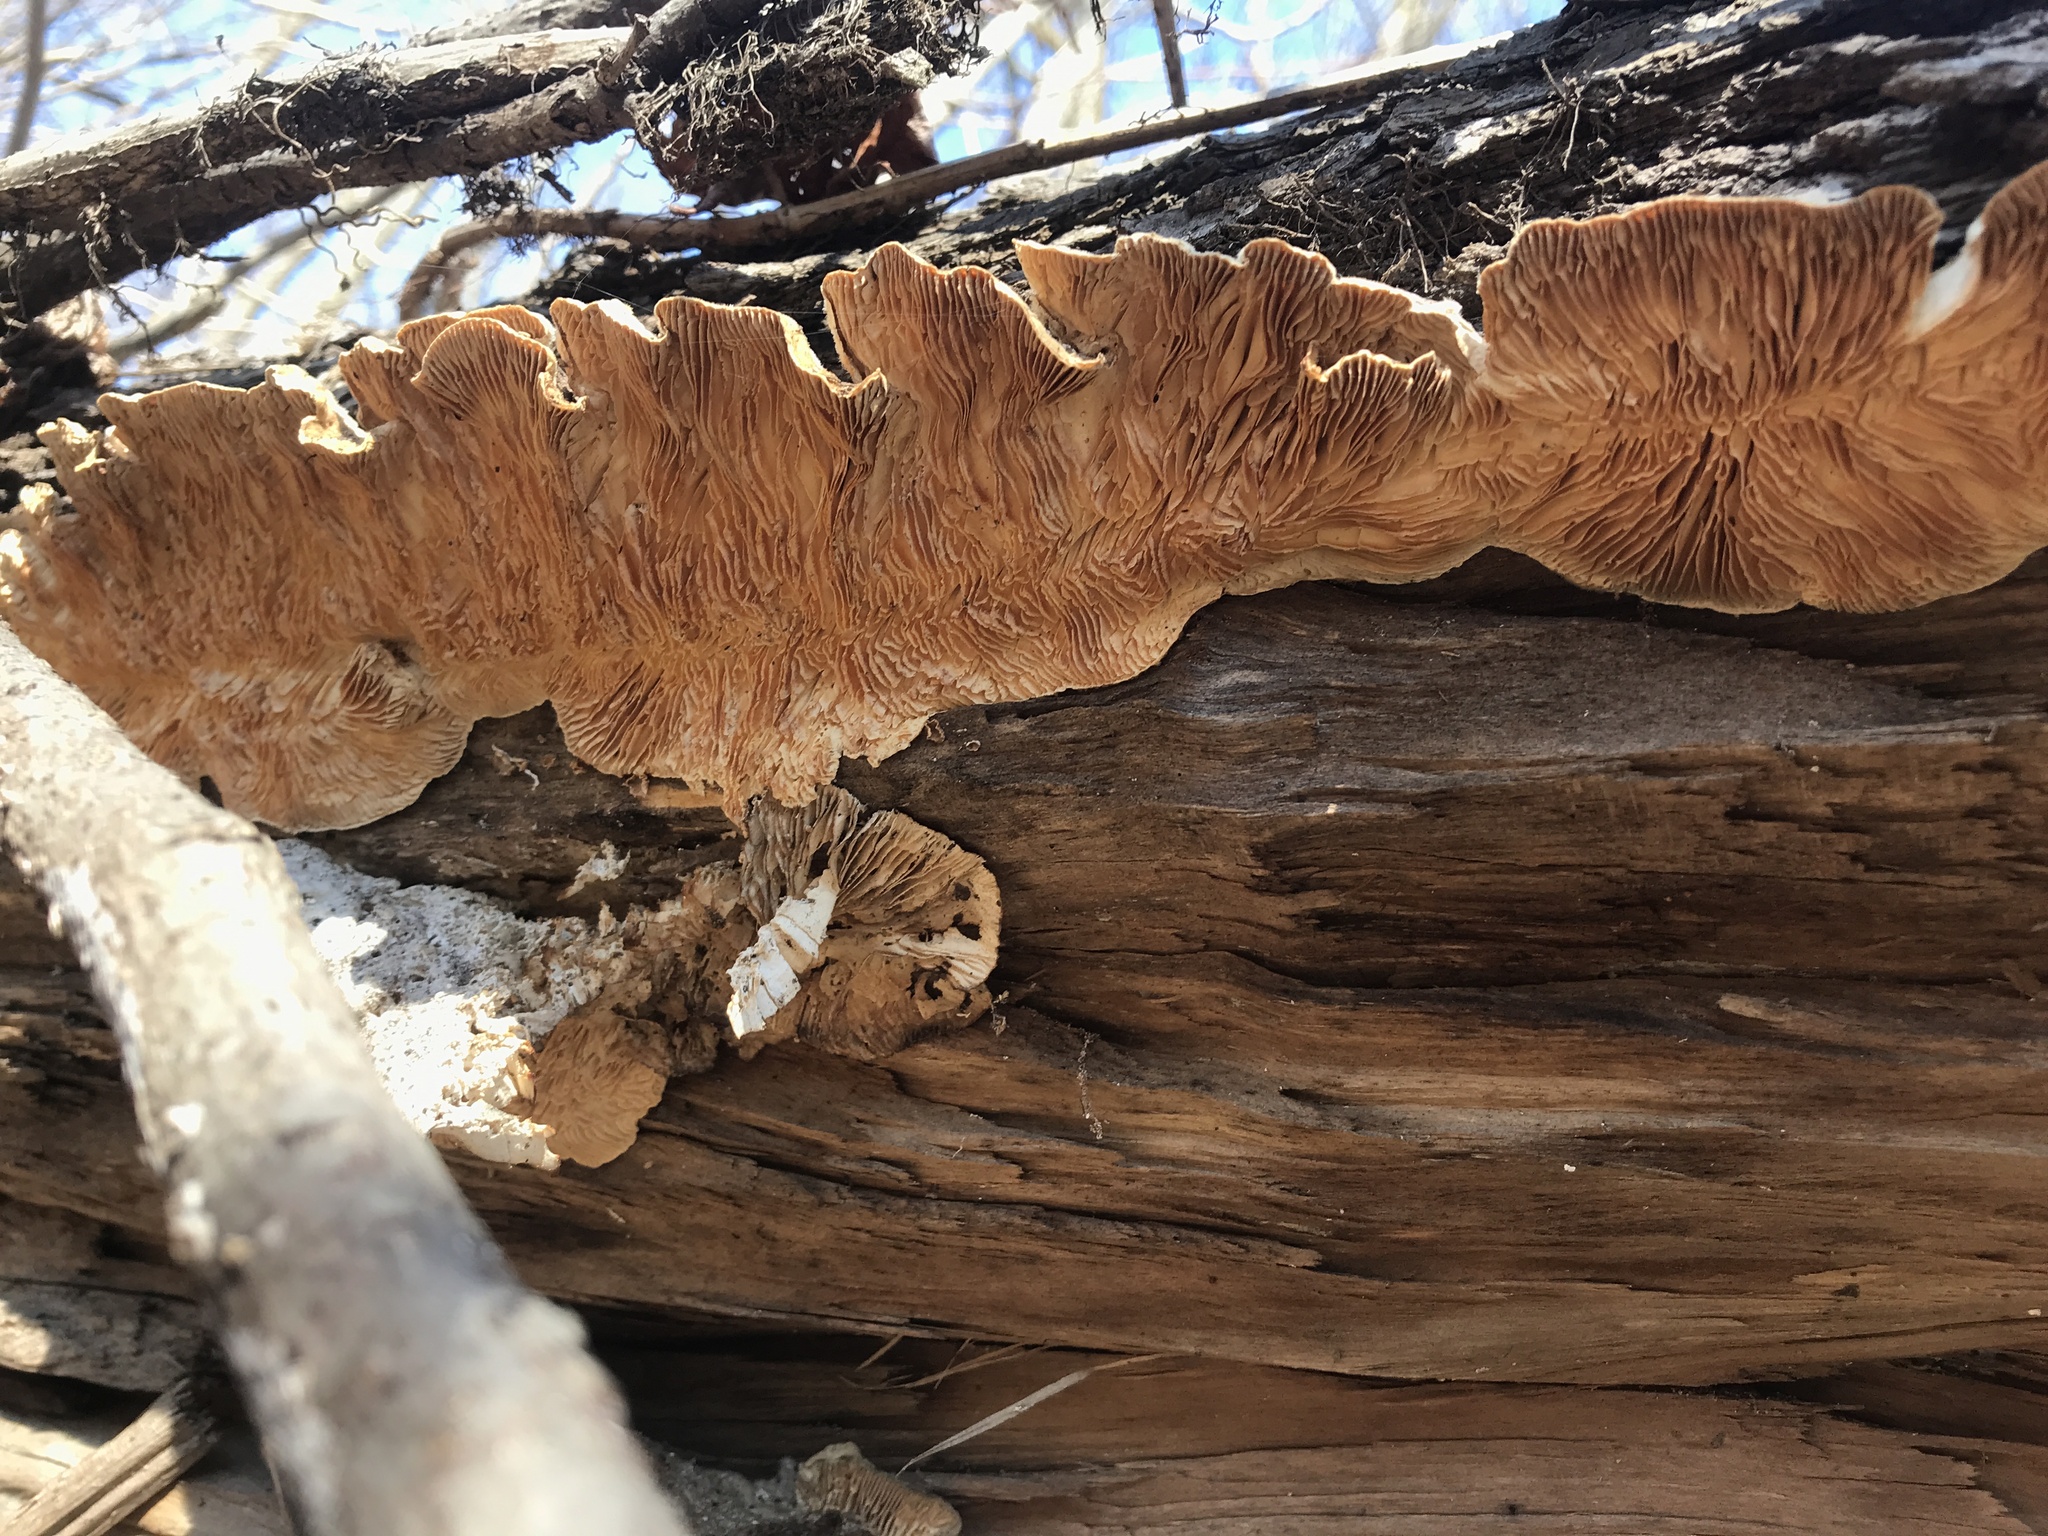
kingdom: Fungi
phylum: Basidiomycota
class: Agaricomycetes
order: Polyporales
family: Polyporaceae
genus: Lenzites
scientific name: Lenzites betulinus
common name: Birch mazegill
